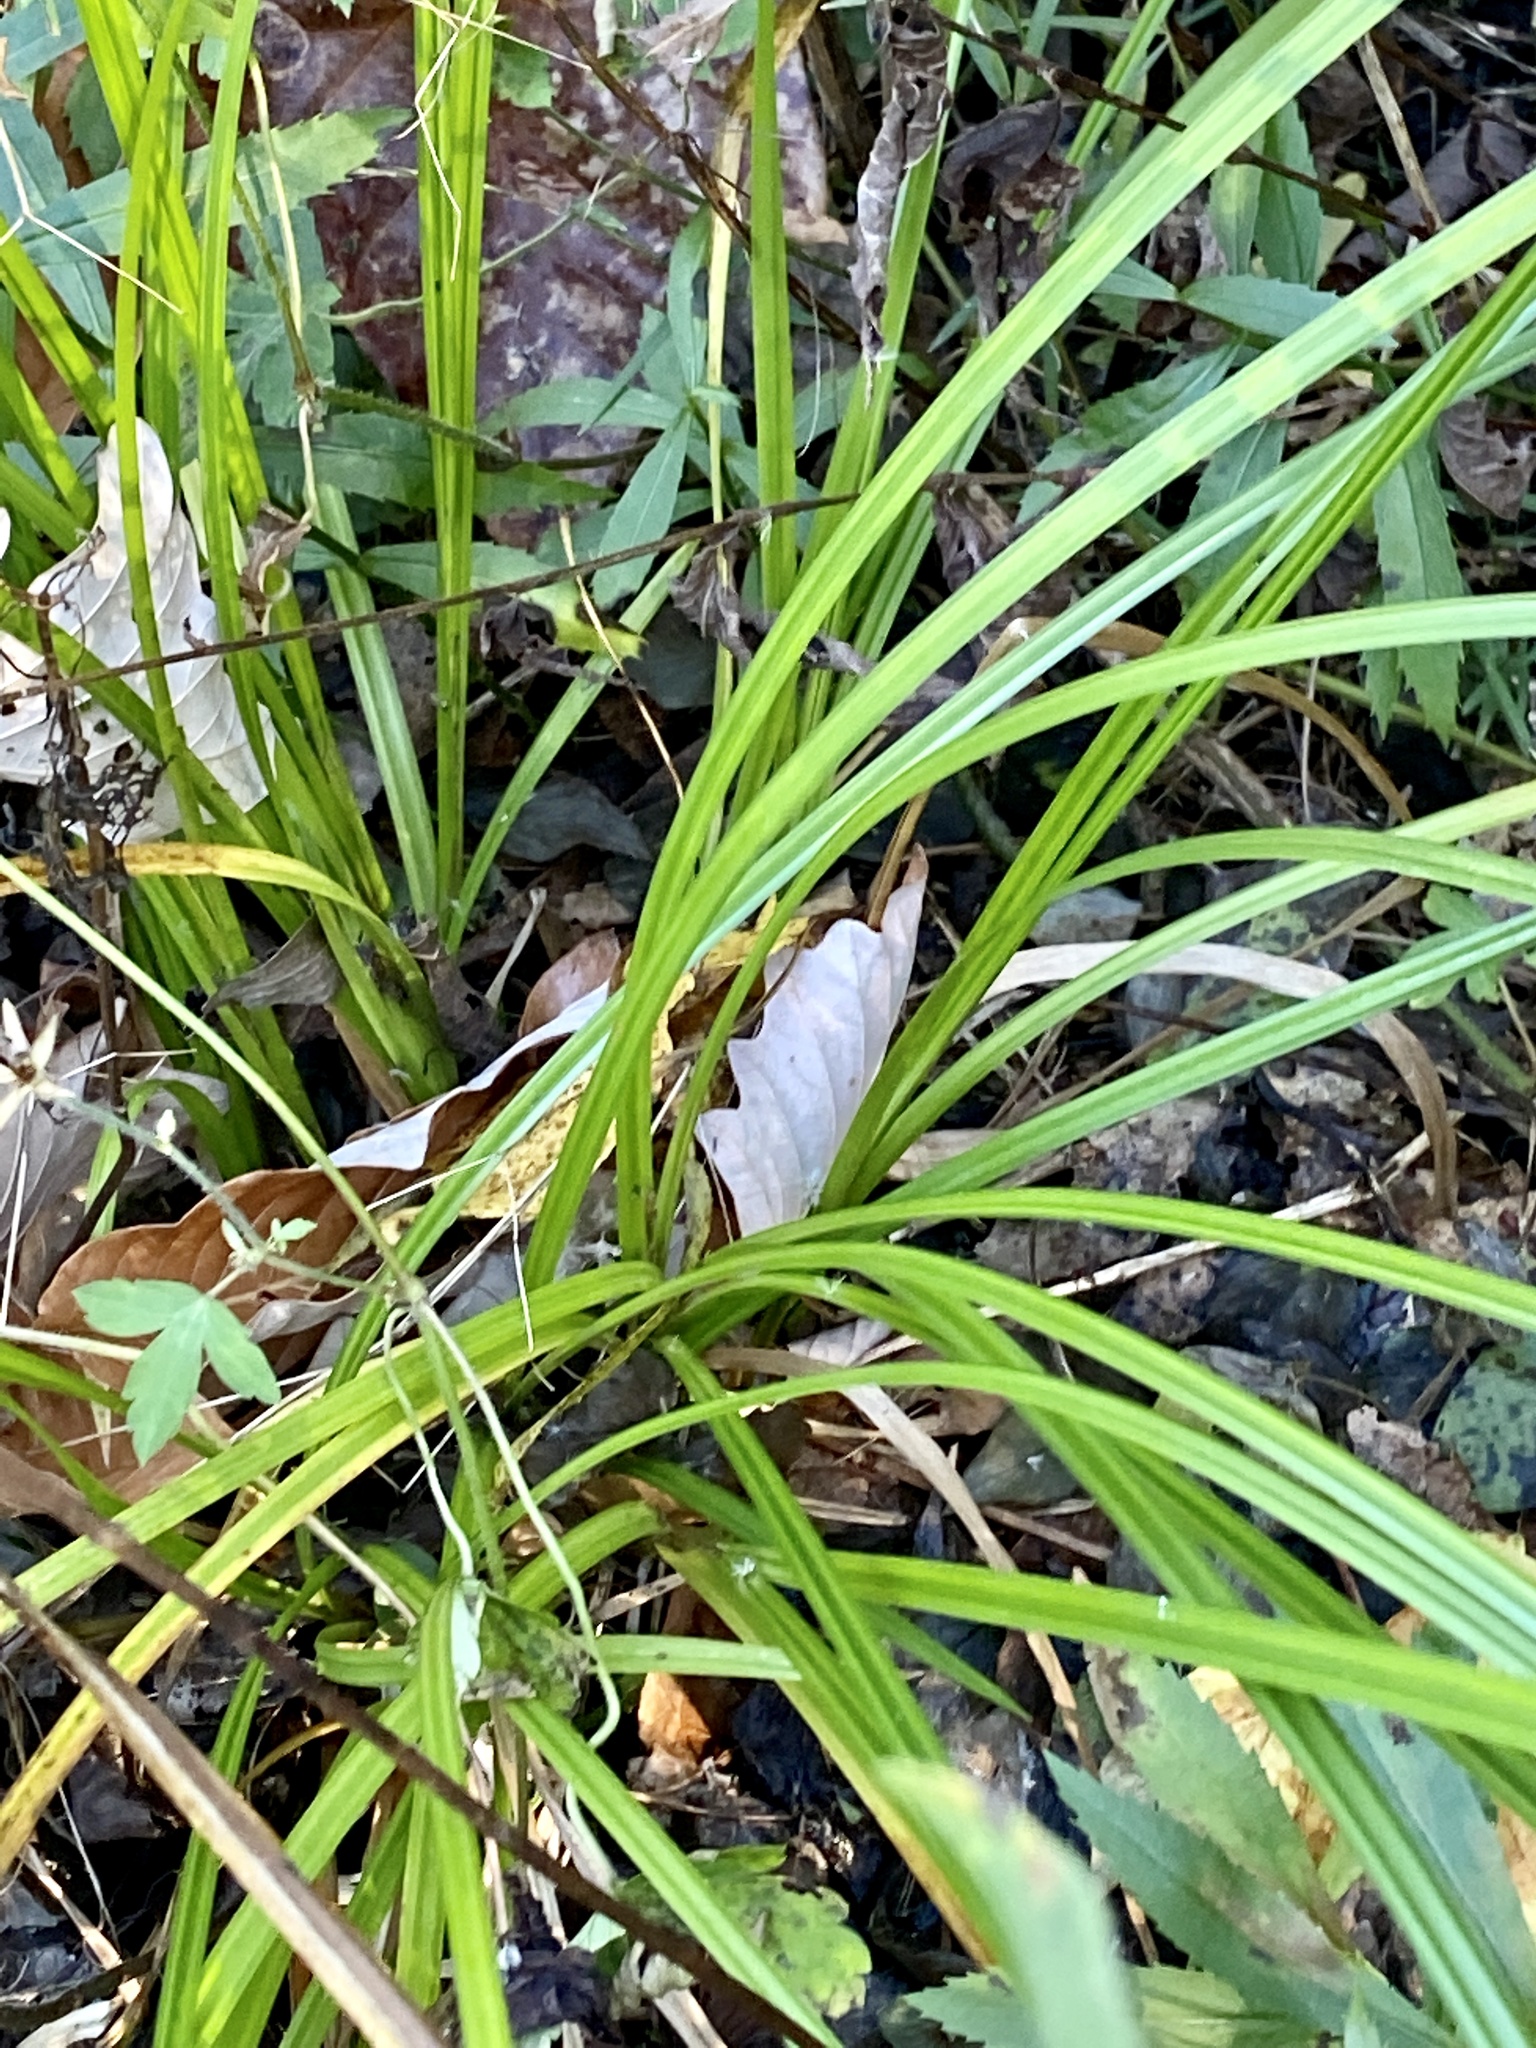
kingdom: Plantae
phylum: Tracheophyta
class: Liliopsida
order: Poales
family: Cyperaceae
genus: Carex
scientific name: Carex lurida
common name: Sallow sedge
